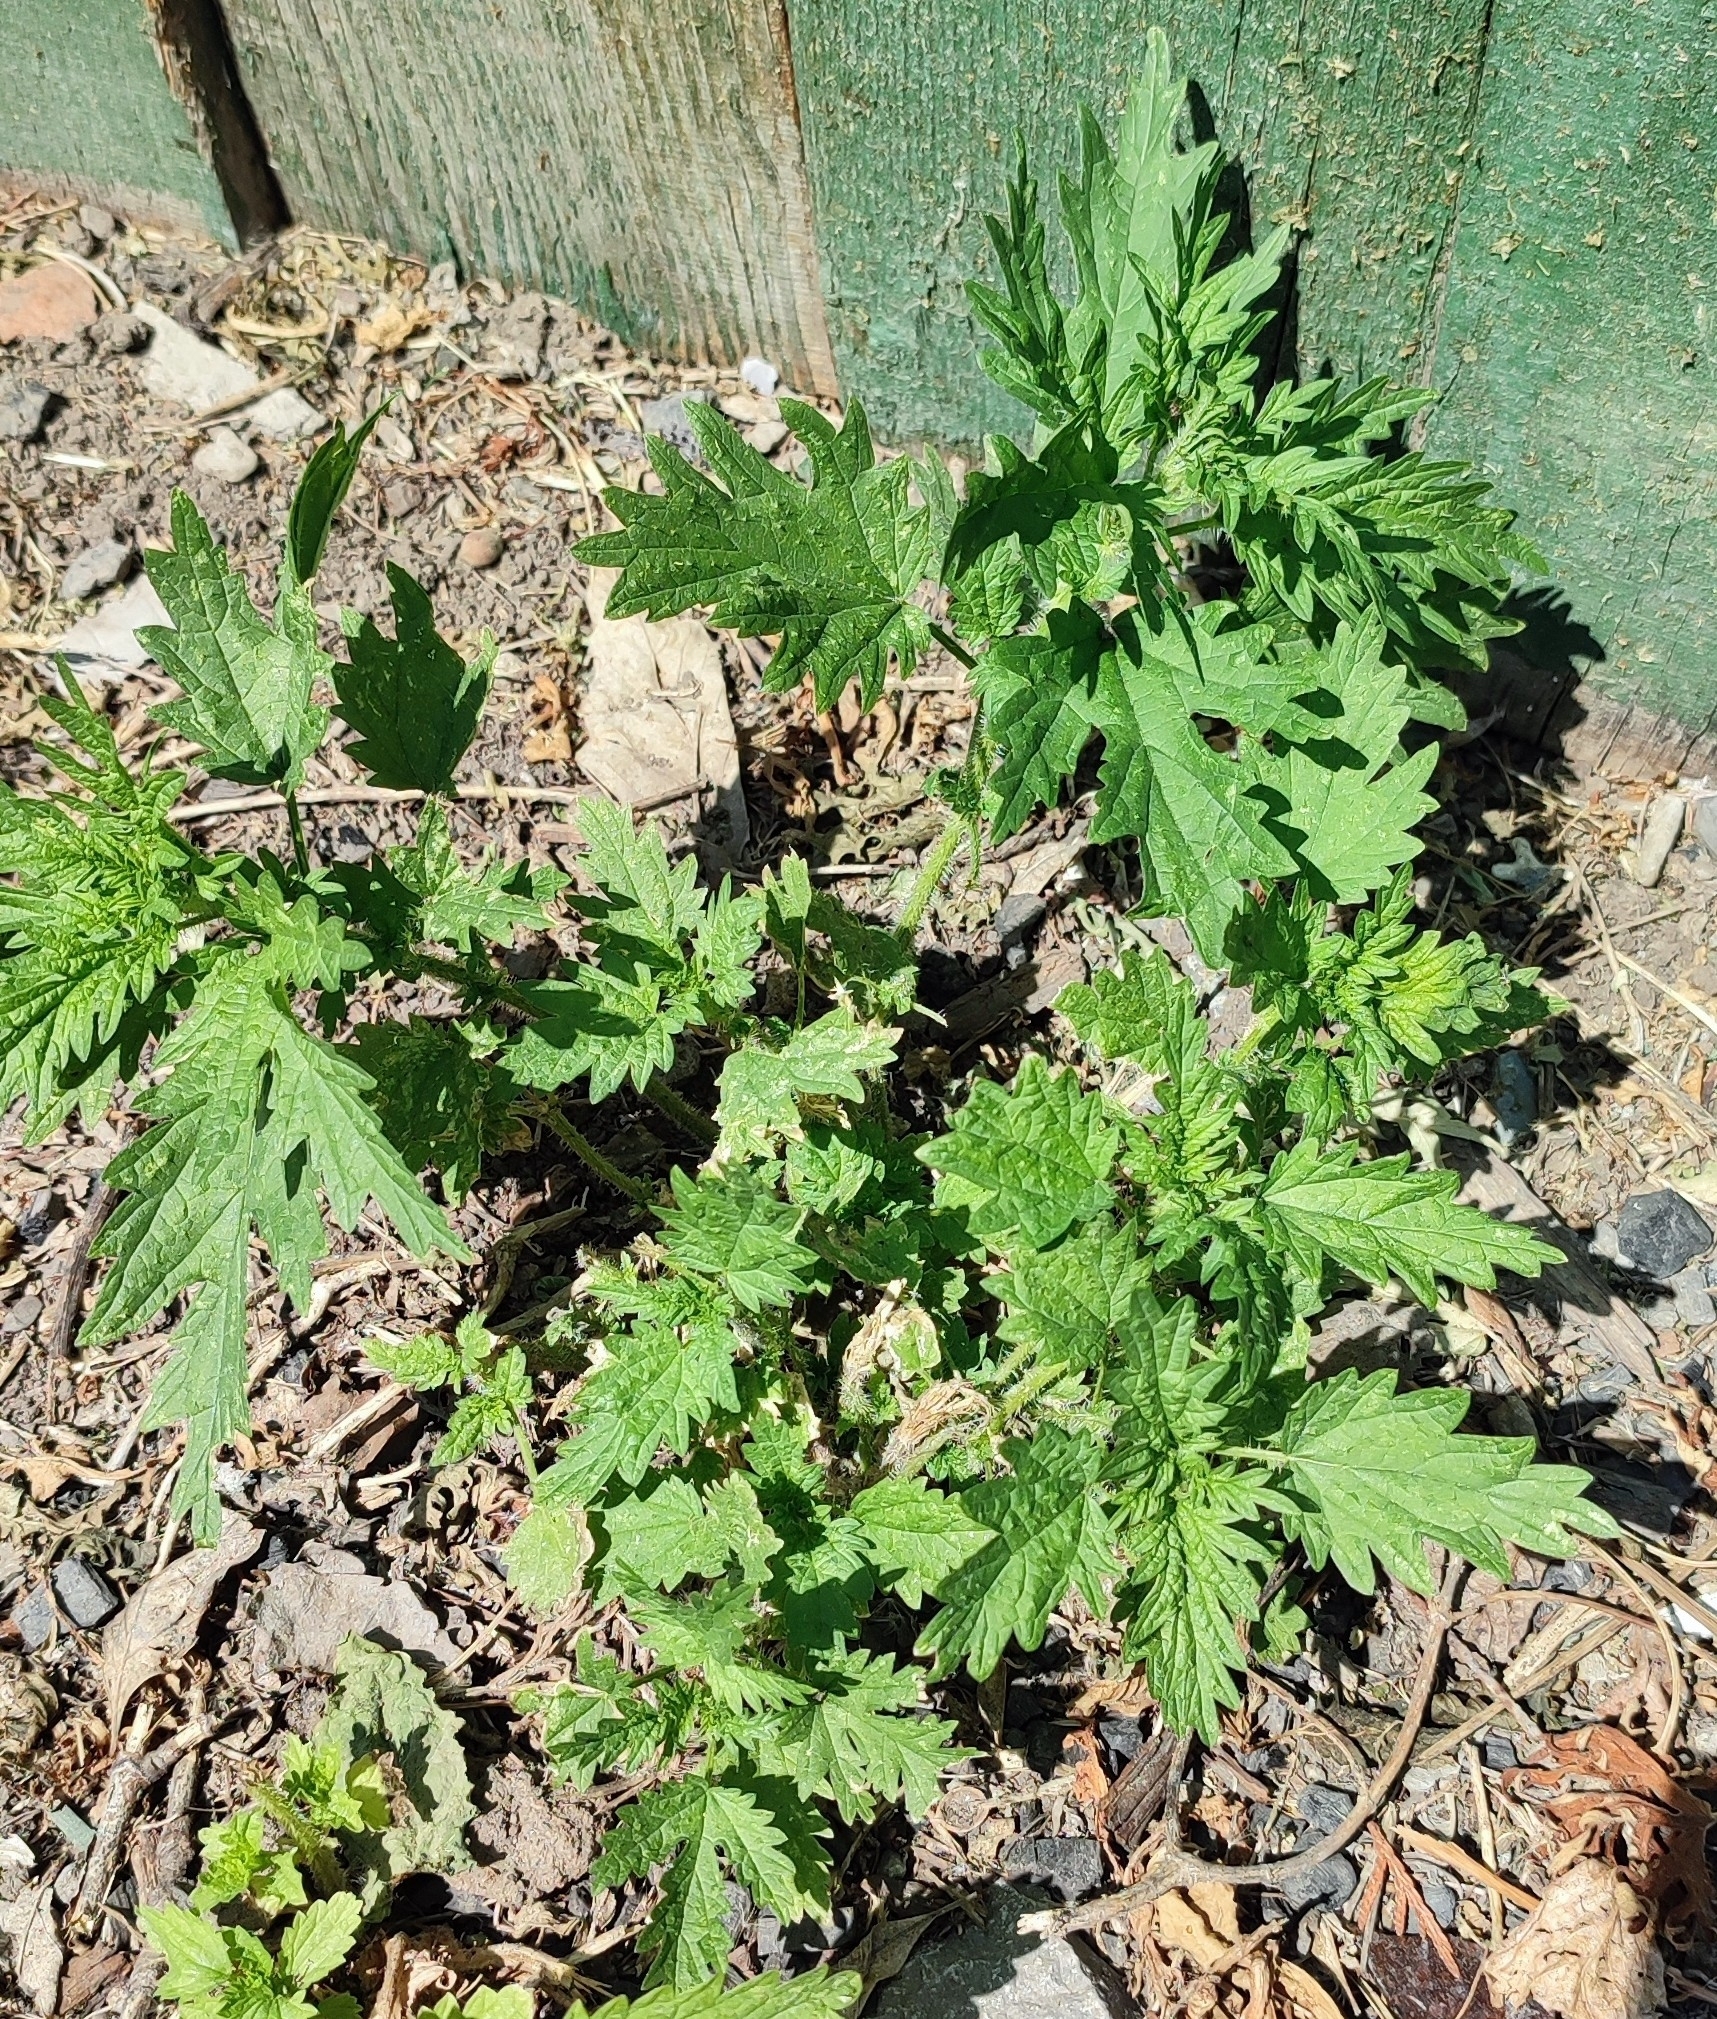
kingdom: Plantae
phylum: Tracheophyta
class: Magnoliopsida
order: Rosales
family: Urticaceae
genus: Urtica
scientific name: Urtica cannabina
